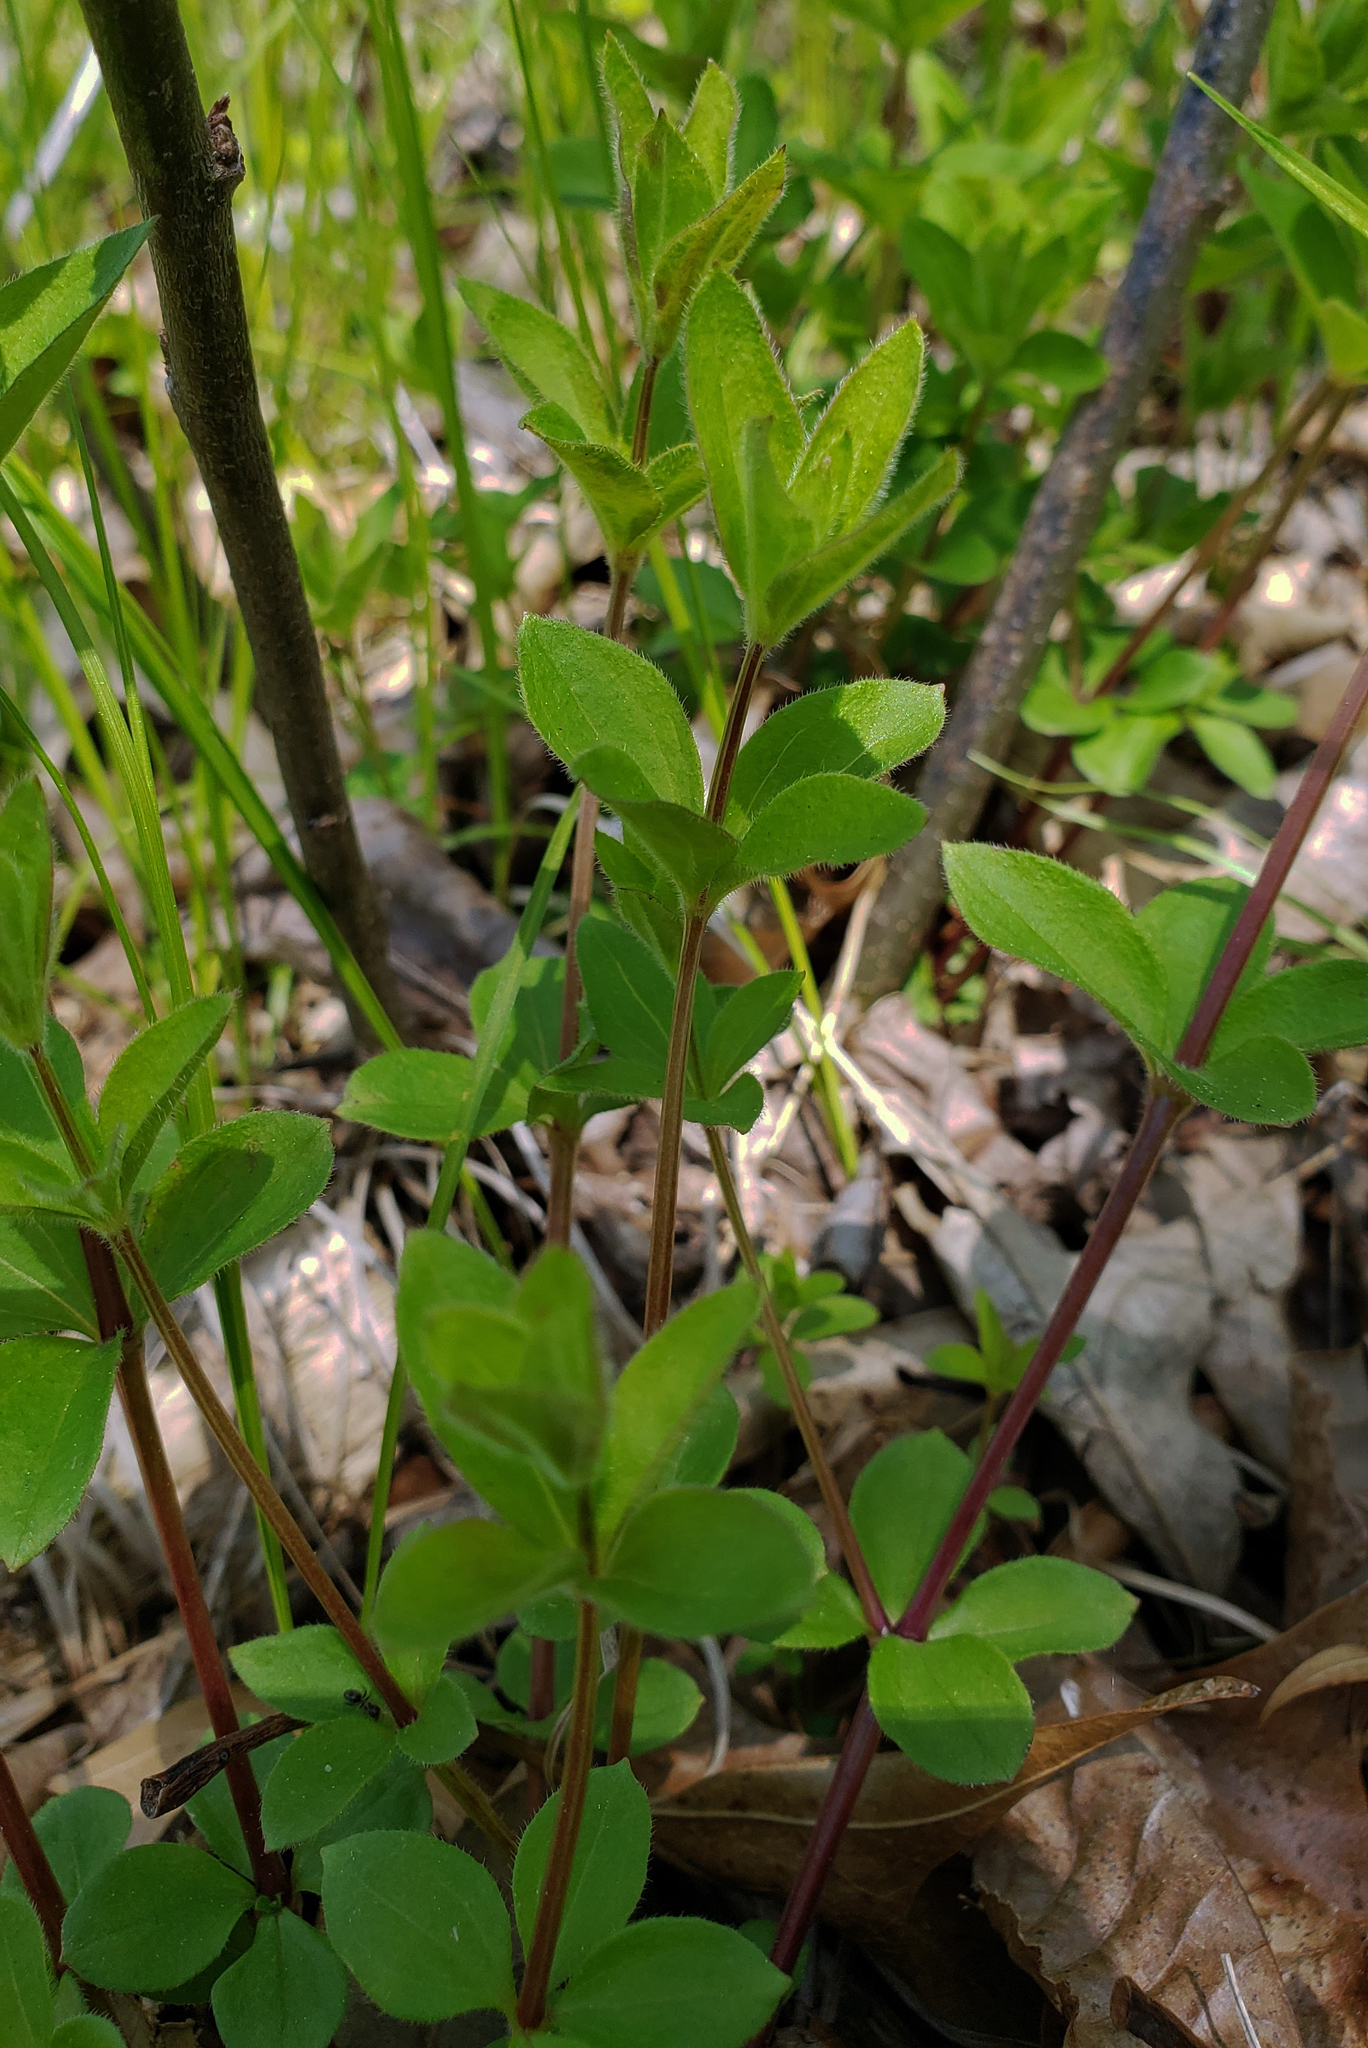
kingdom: Plantae
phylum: Tracheophyta
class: Magnoliopsida
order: Gentianales
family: Rubiaceae
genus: Galium
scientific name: Galium circaezans
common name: Forest bedstraw
